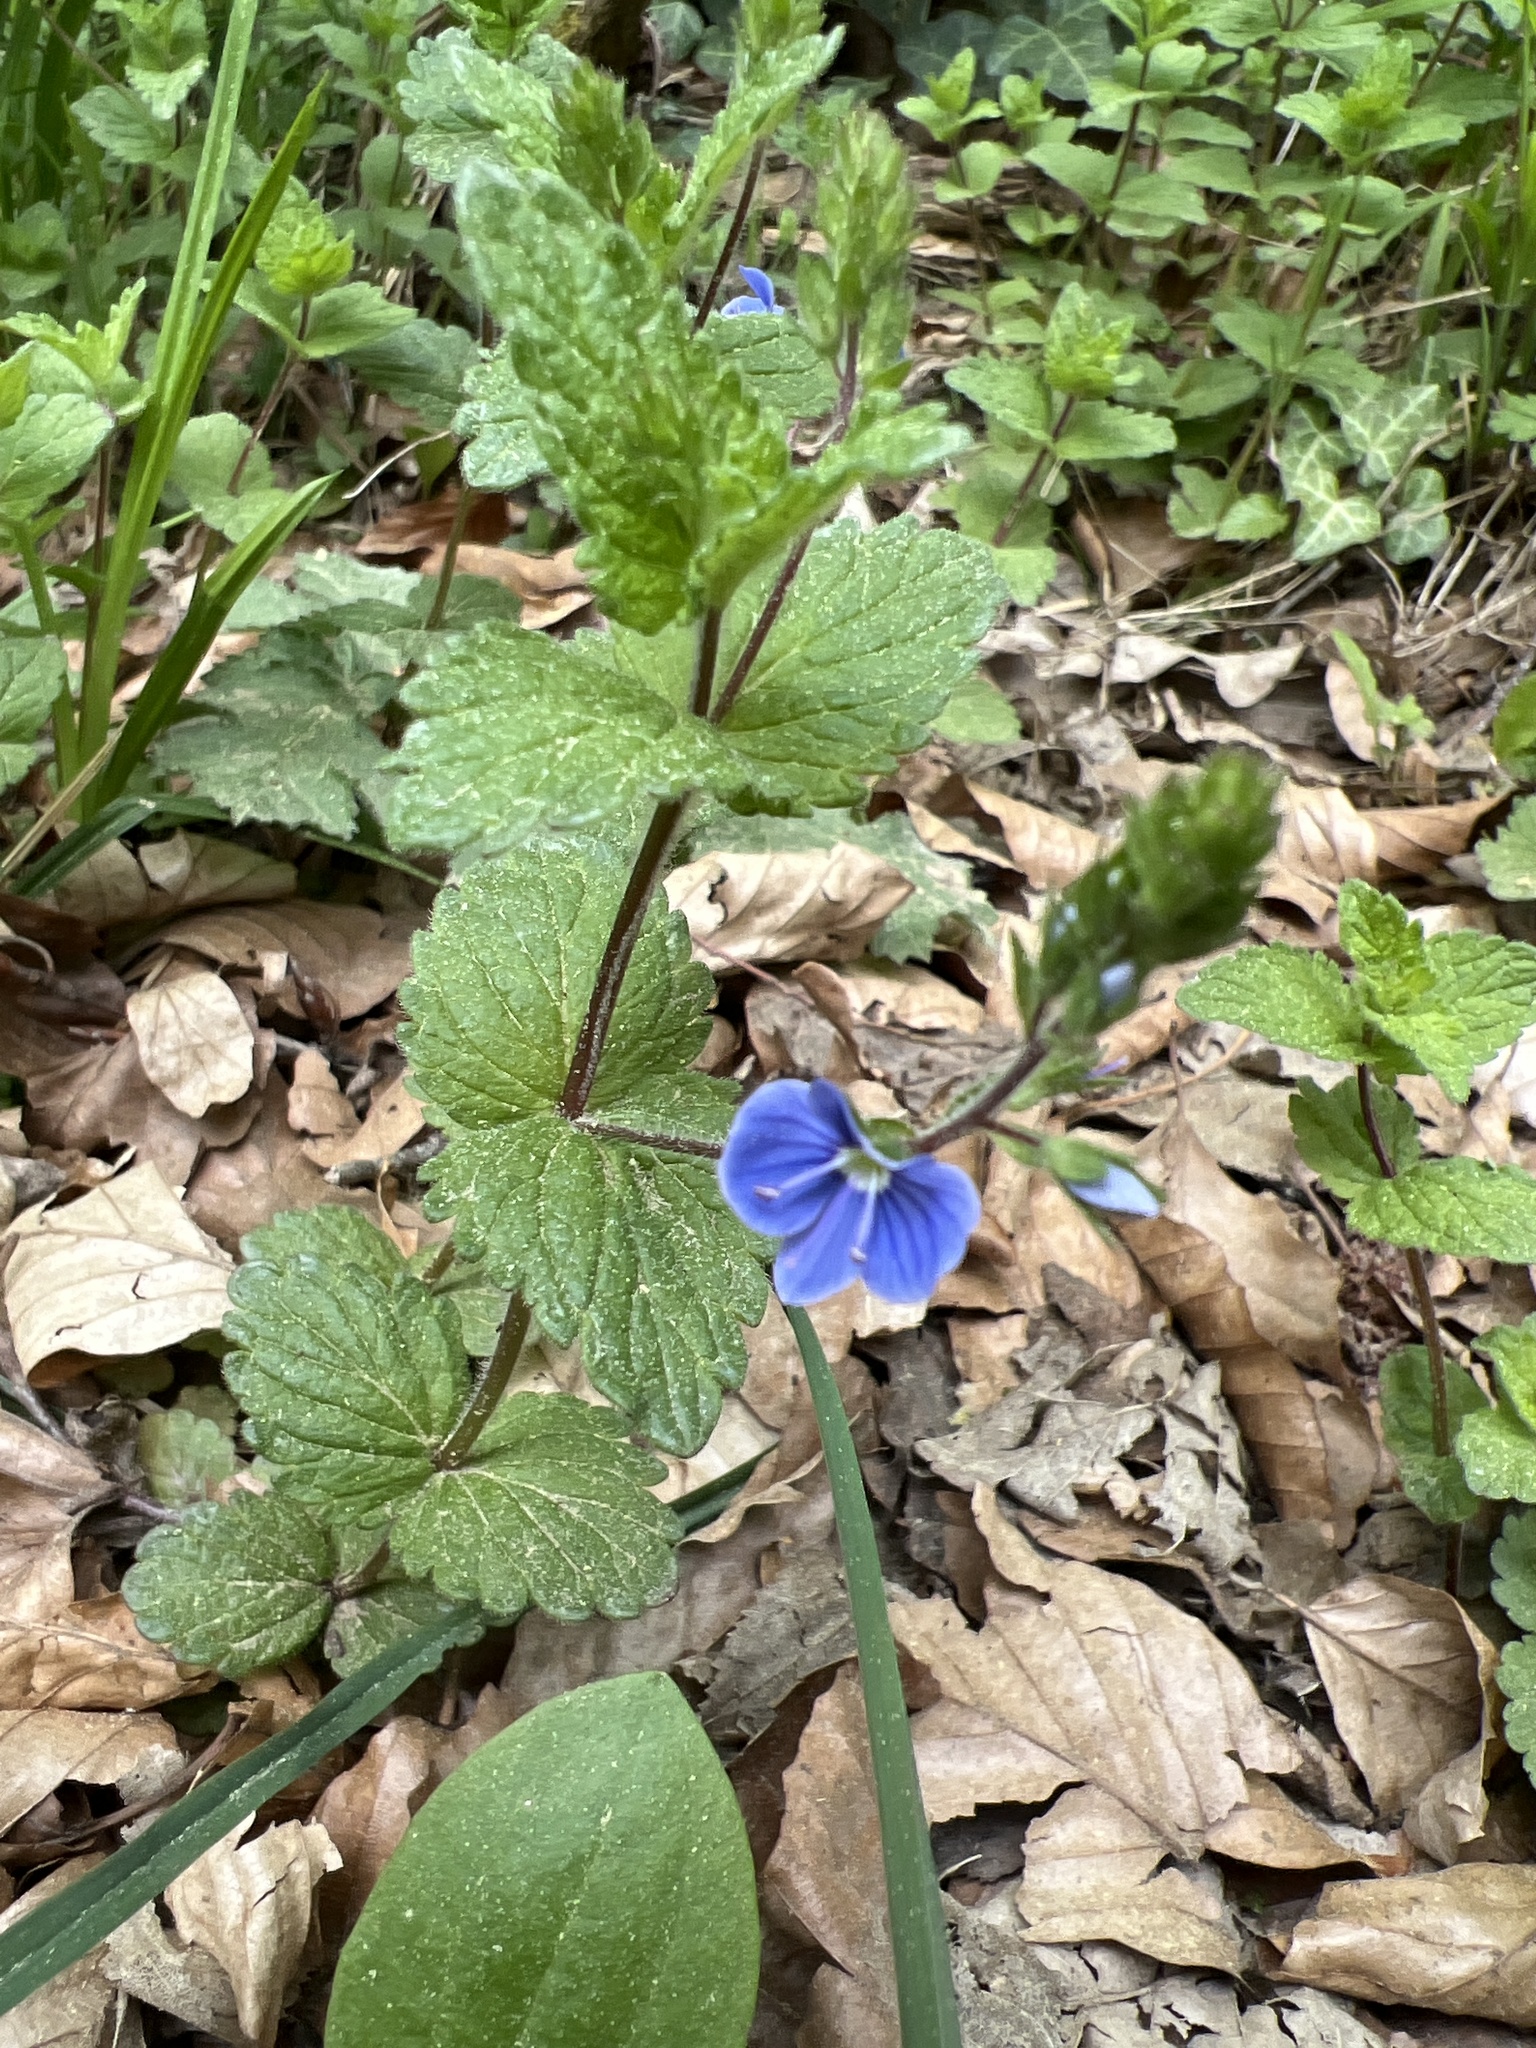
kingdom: Plantae
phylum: Tracheophyta
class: Magnoliopsida
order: Lamiales
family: Plantaginaceae
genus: Veronica
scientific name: Veronica chamaedrys
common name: Germander speedwell
